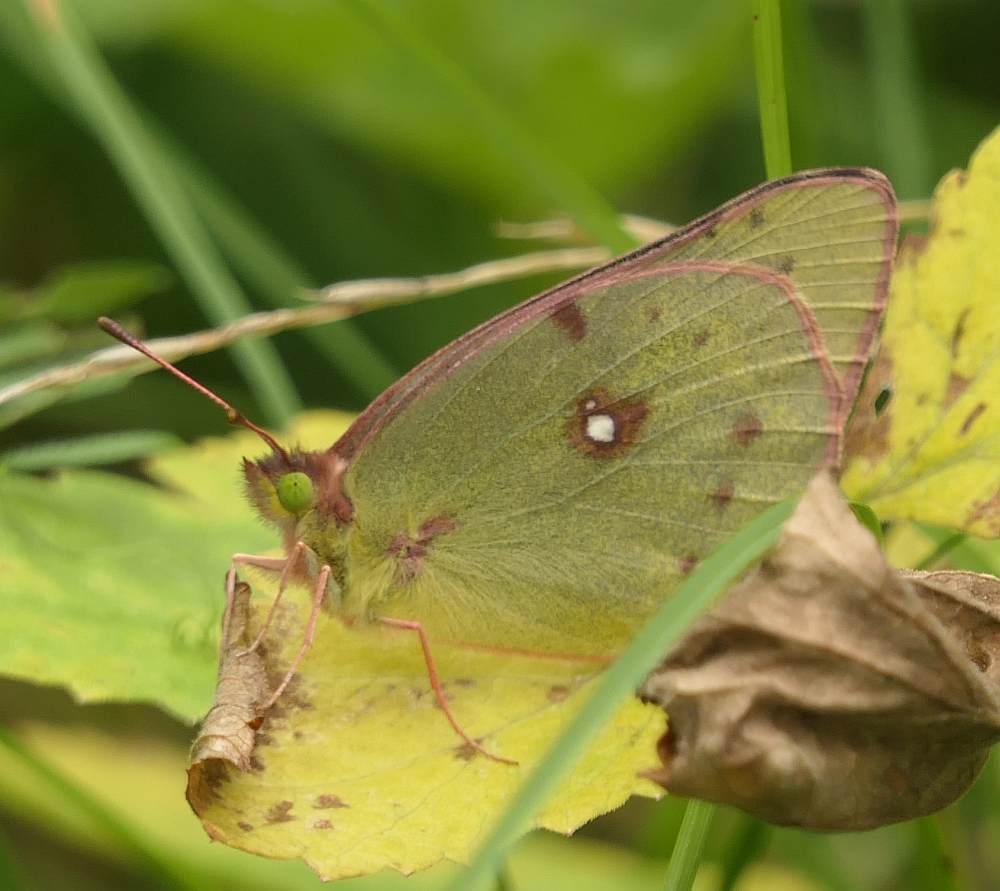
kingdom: Animalia
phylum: Arthropoda
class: Insecta
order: Lepidoptera
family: Pieridae
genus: Colias
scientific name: Colias philodice
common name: Clouded sulphur
